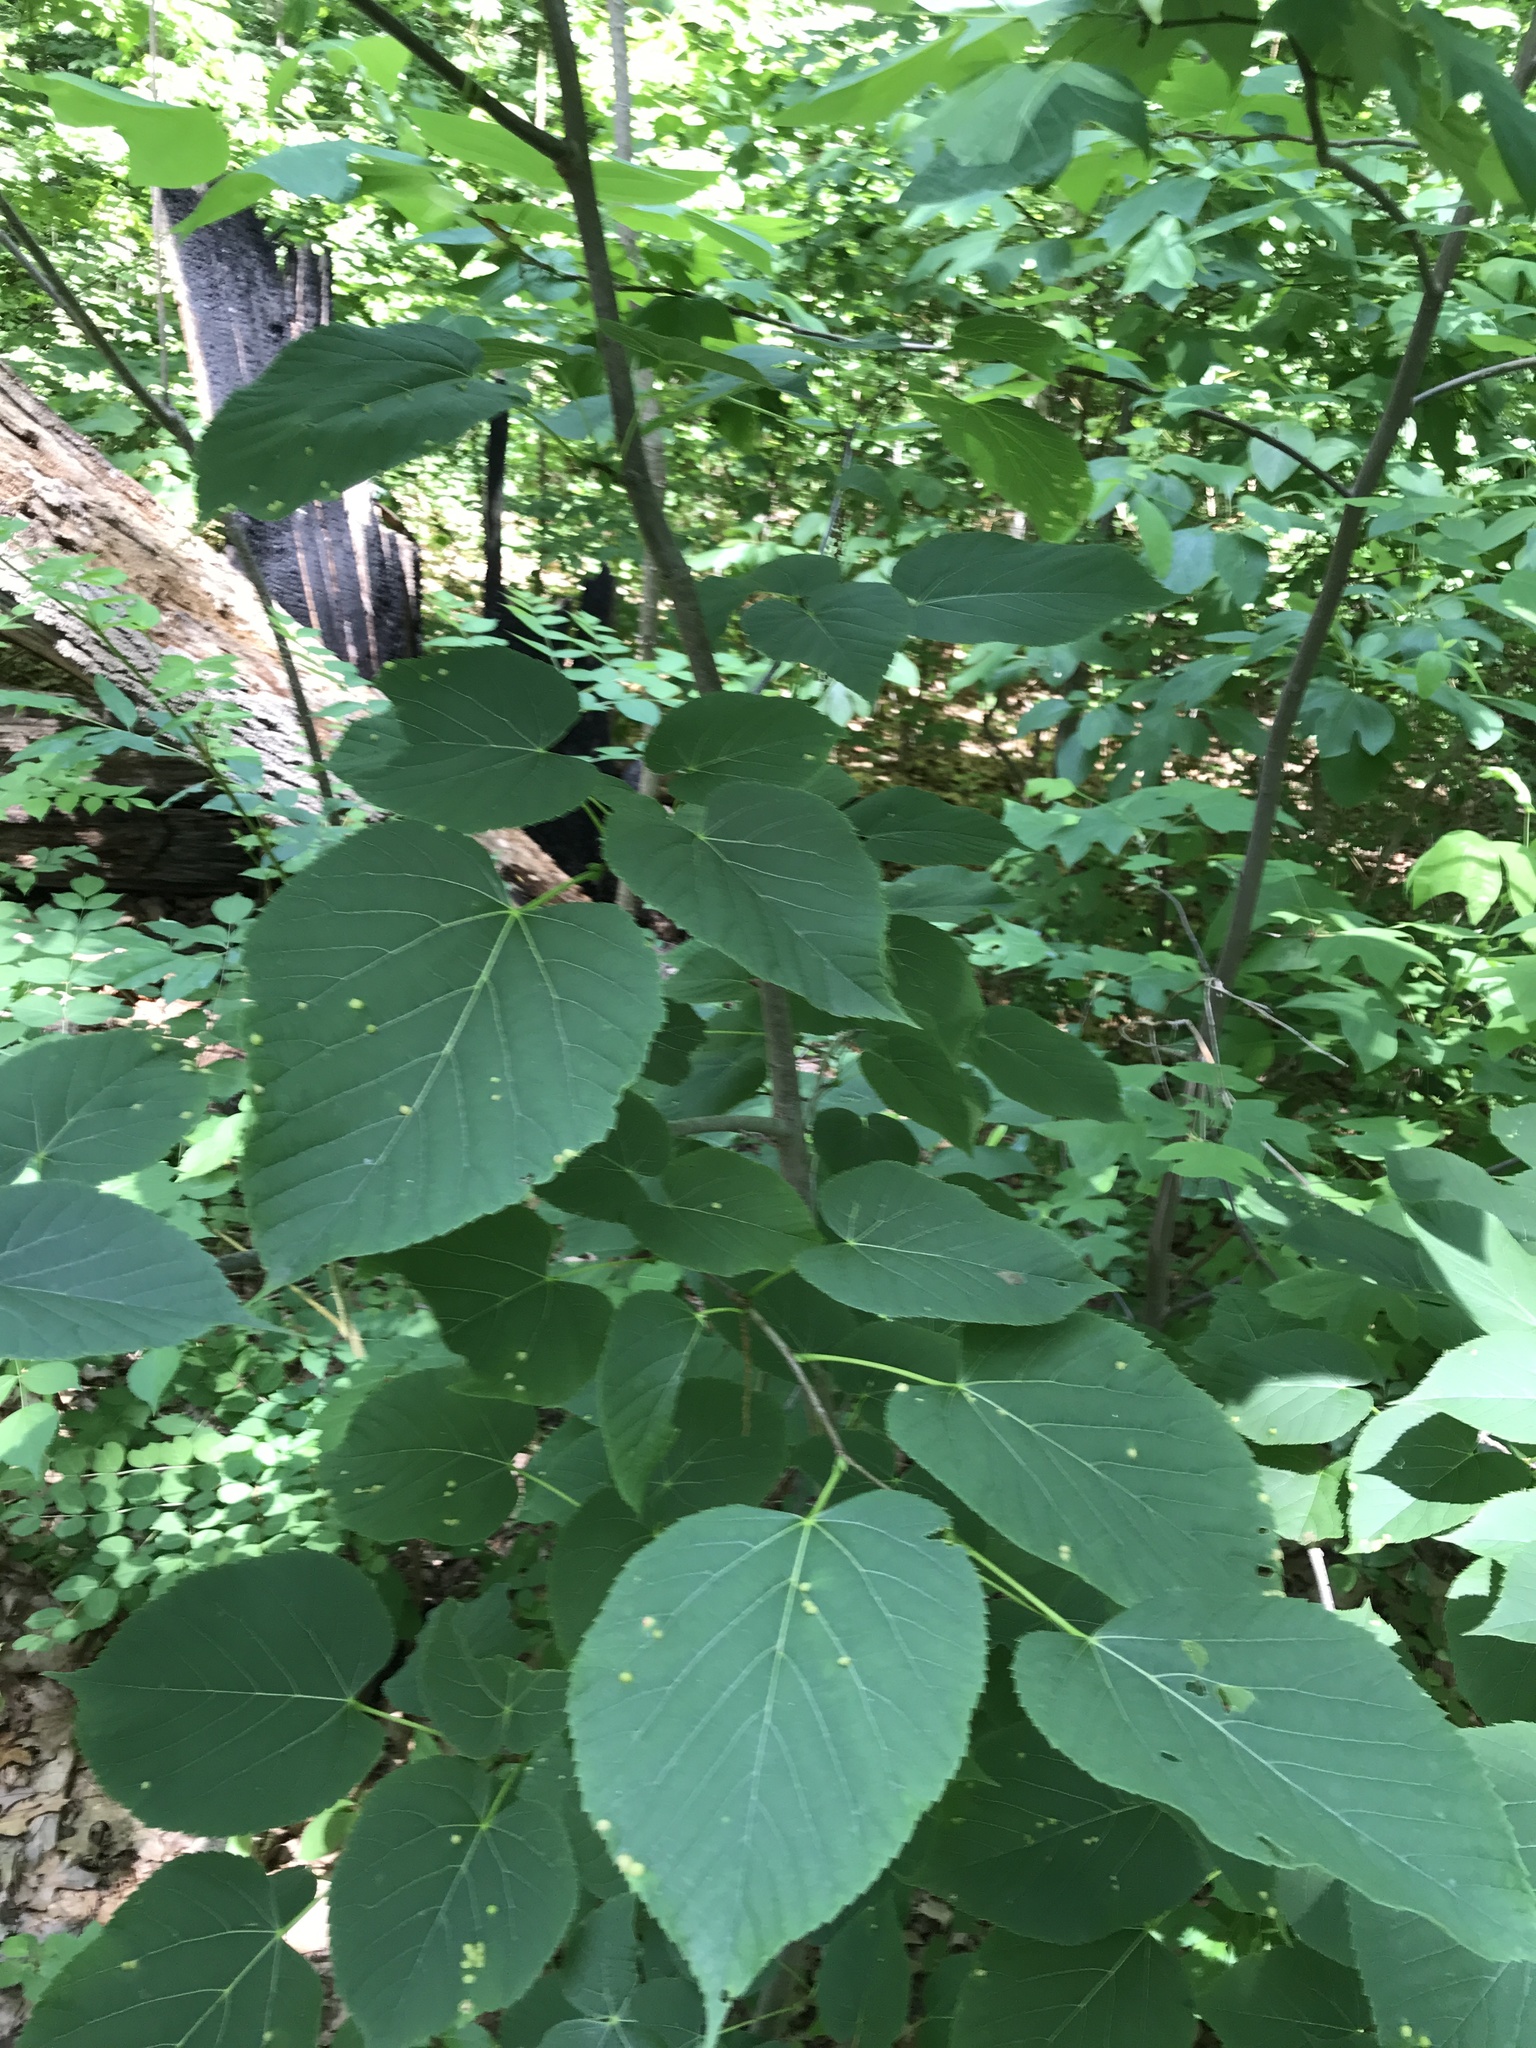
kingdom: Plantae
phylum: Tracheophyta
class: Magnoliopsida
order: Malvales
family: Malvaceae
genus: Tilia
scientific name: Tilia americana
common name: Basswood
